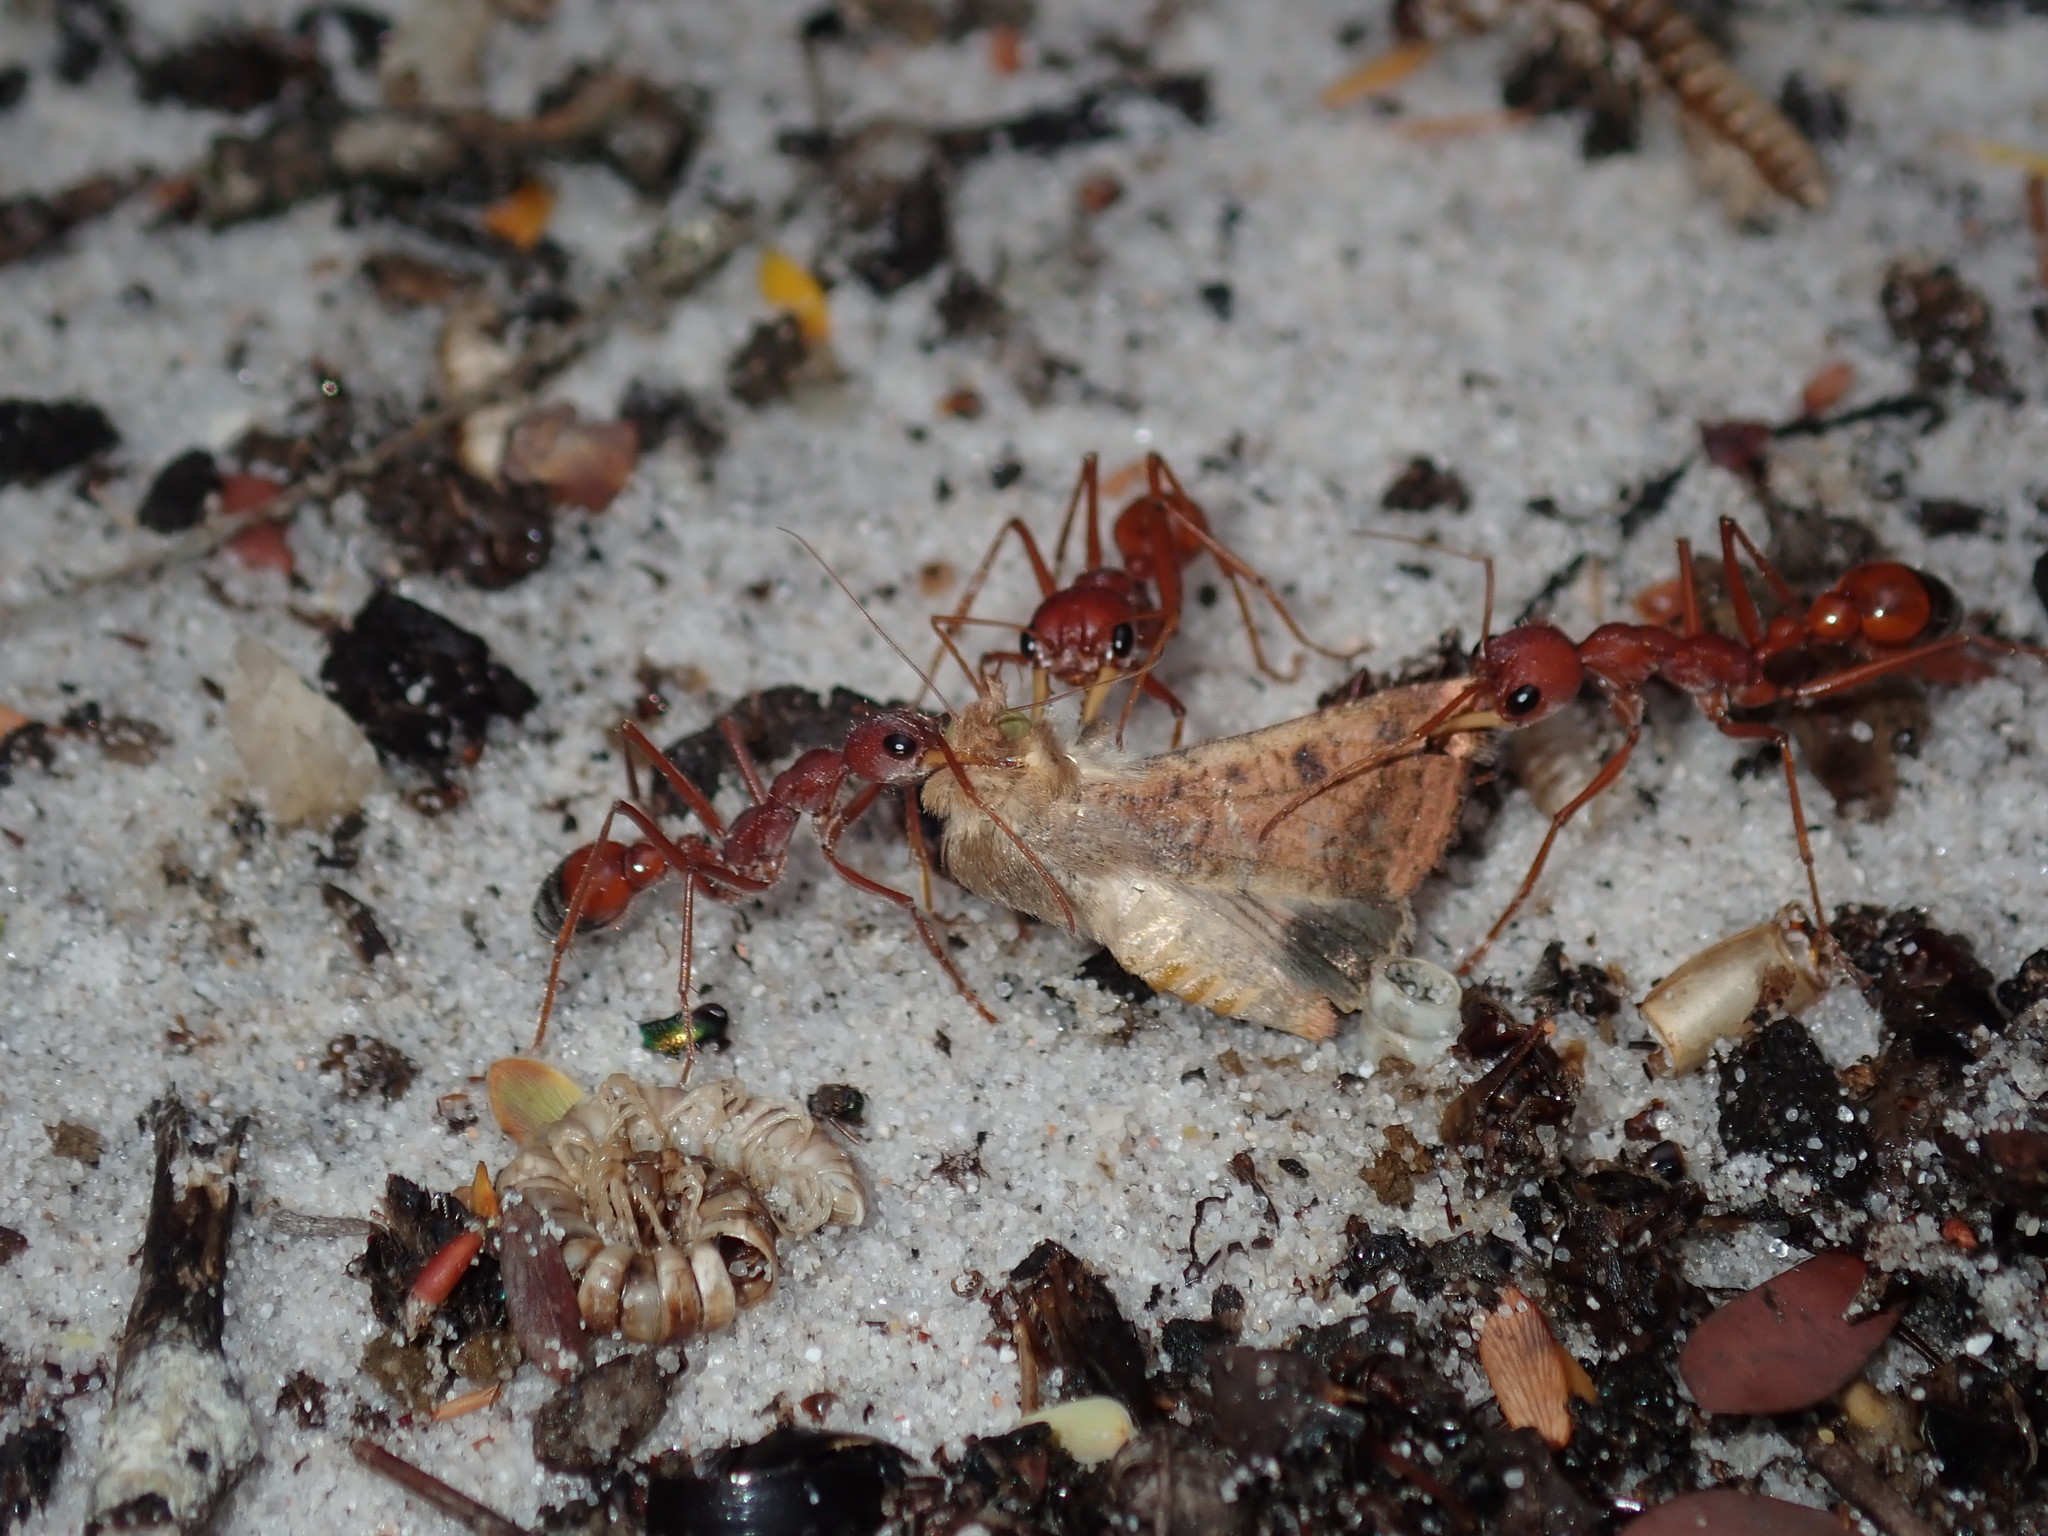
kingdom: Animalia
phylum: Arthropoda
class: Insecta
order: Hymenoptera
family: Formicidae
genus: Myrmecia
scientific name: Myrmecia gulosa
